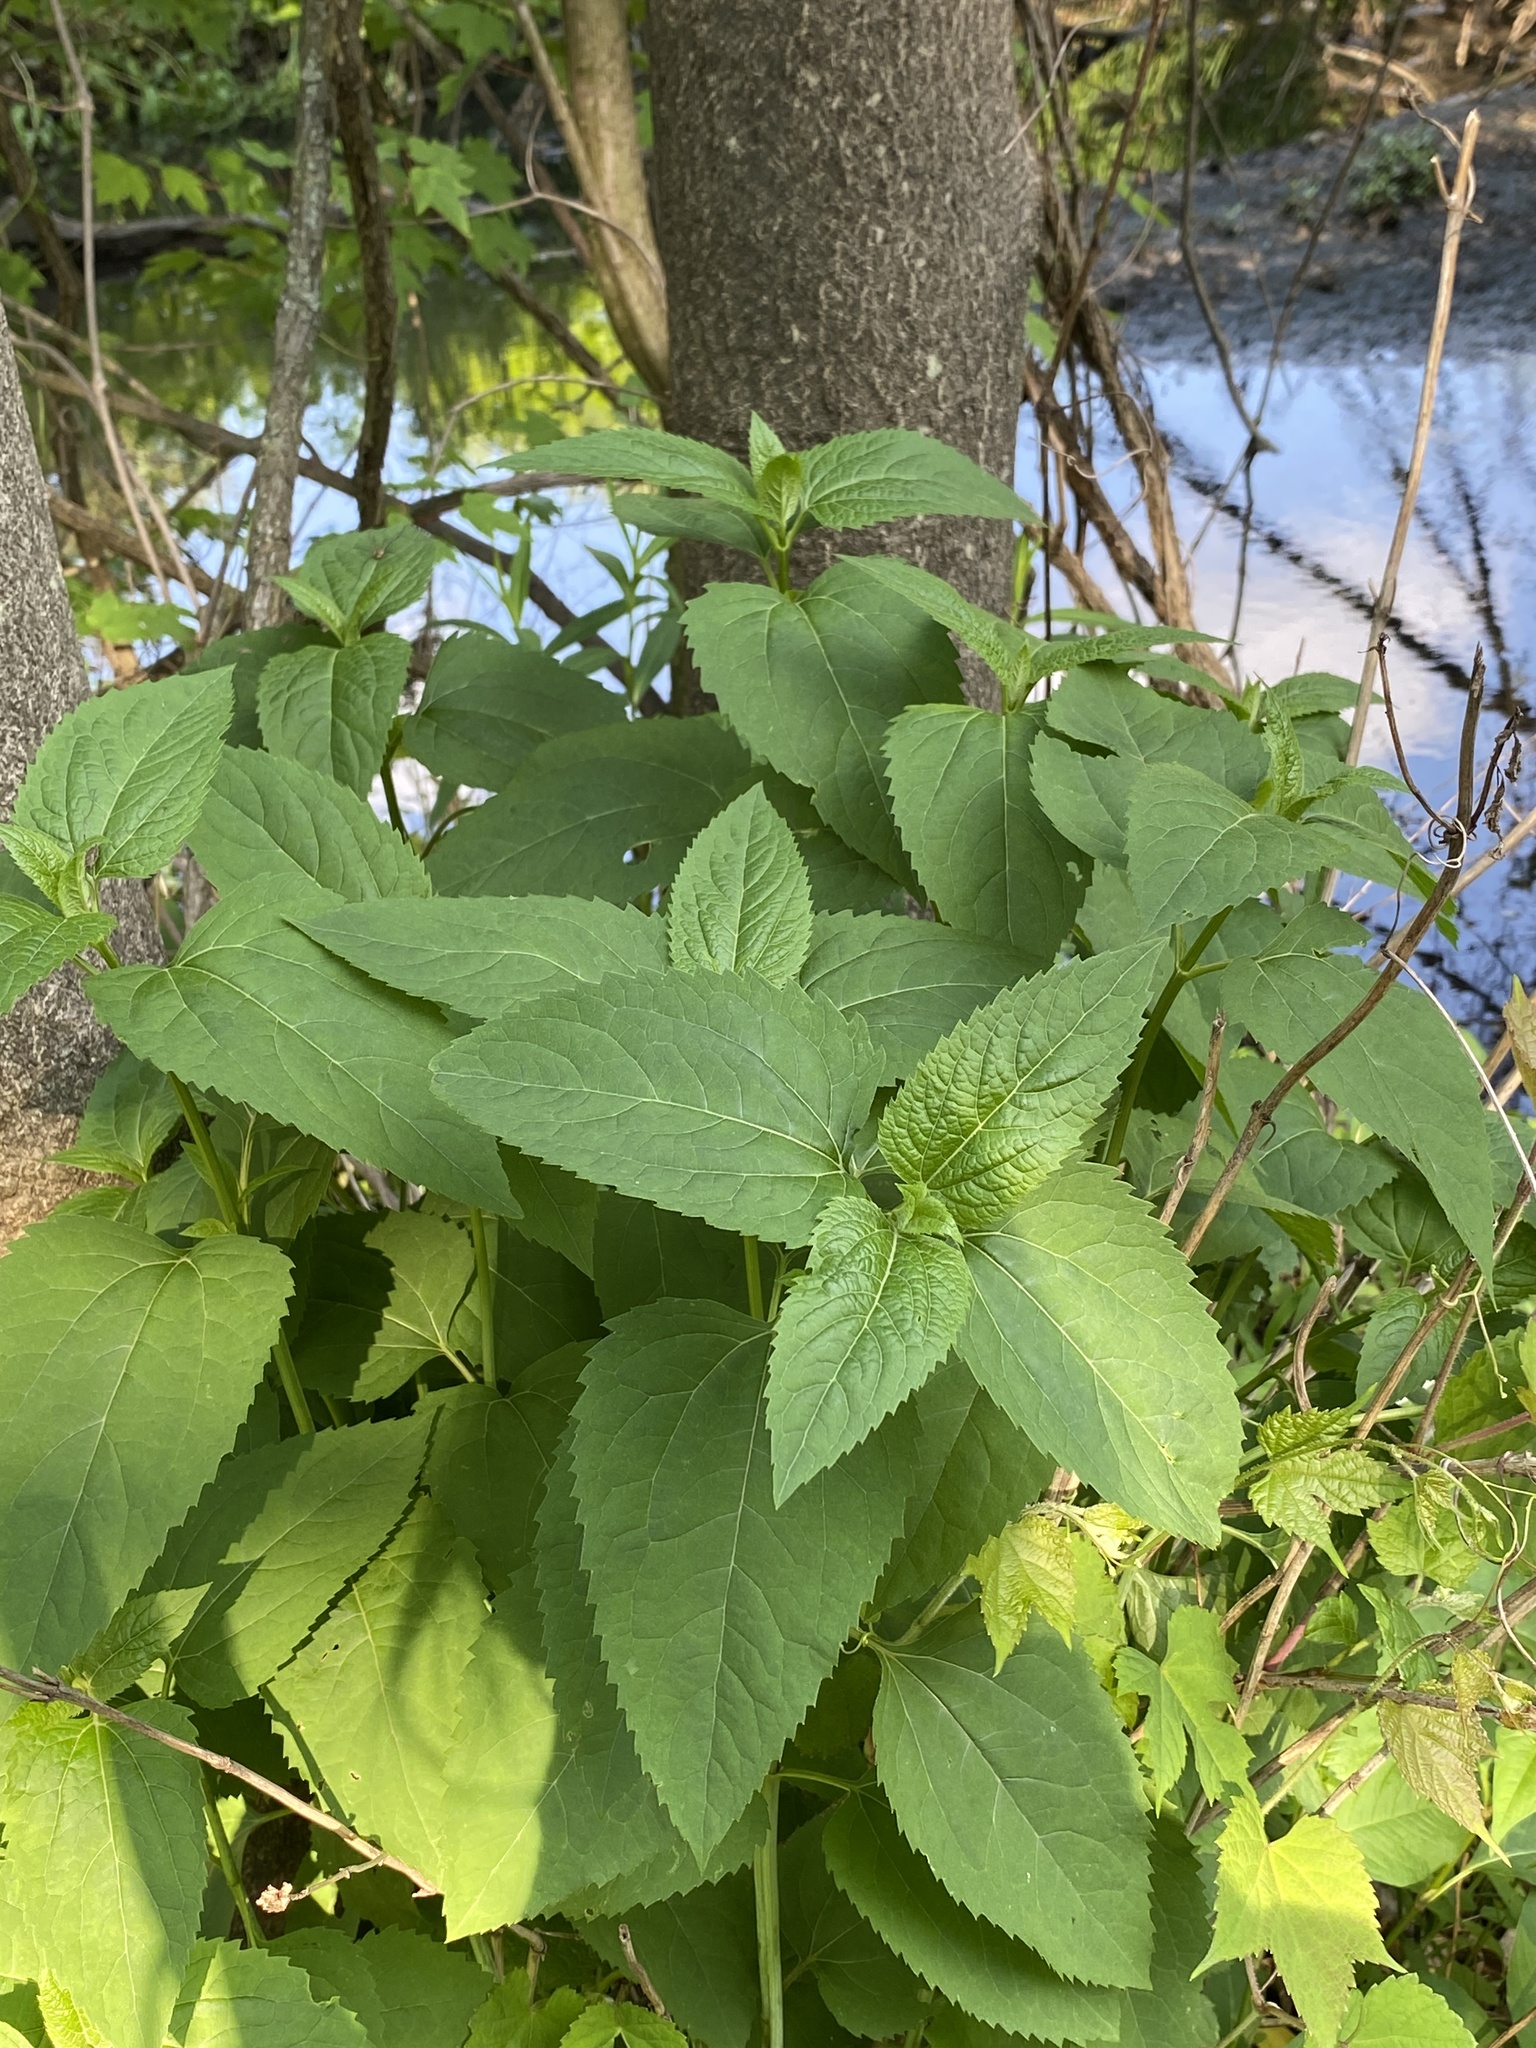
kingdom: Plantae
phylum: Tracheophyta
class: Magnoliopsida
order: Asterales
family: Asteraceae
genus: Heliopsis
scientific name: Heliopsis helianthoides
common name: False sunflower
